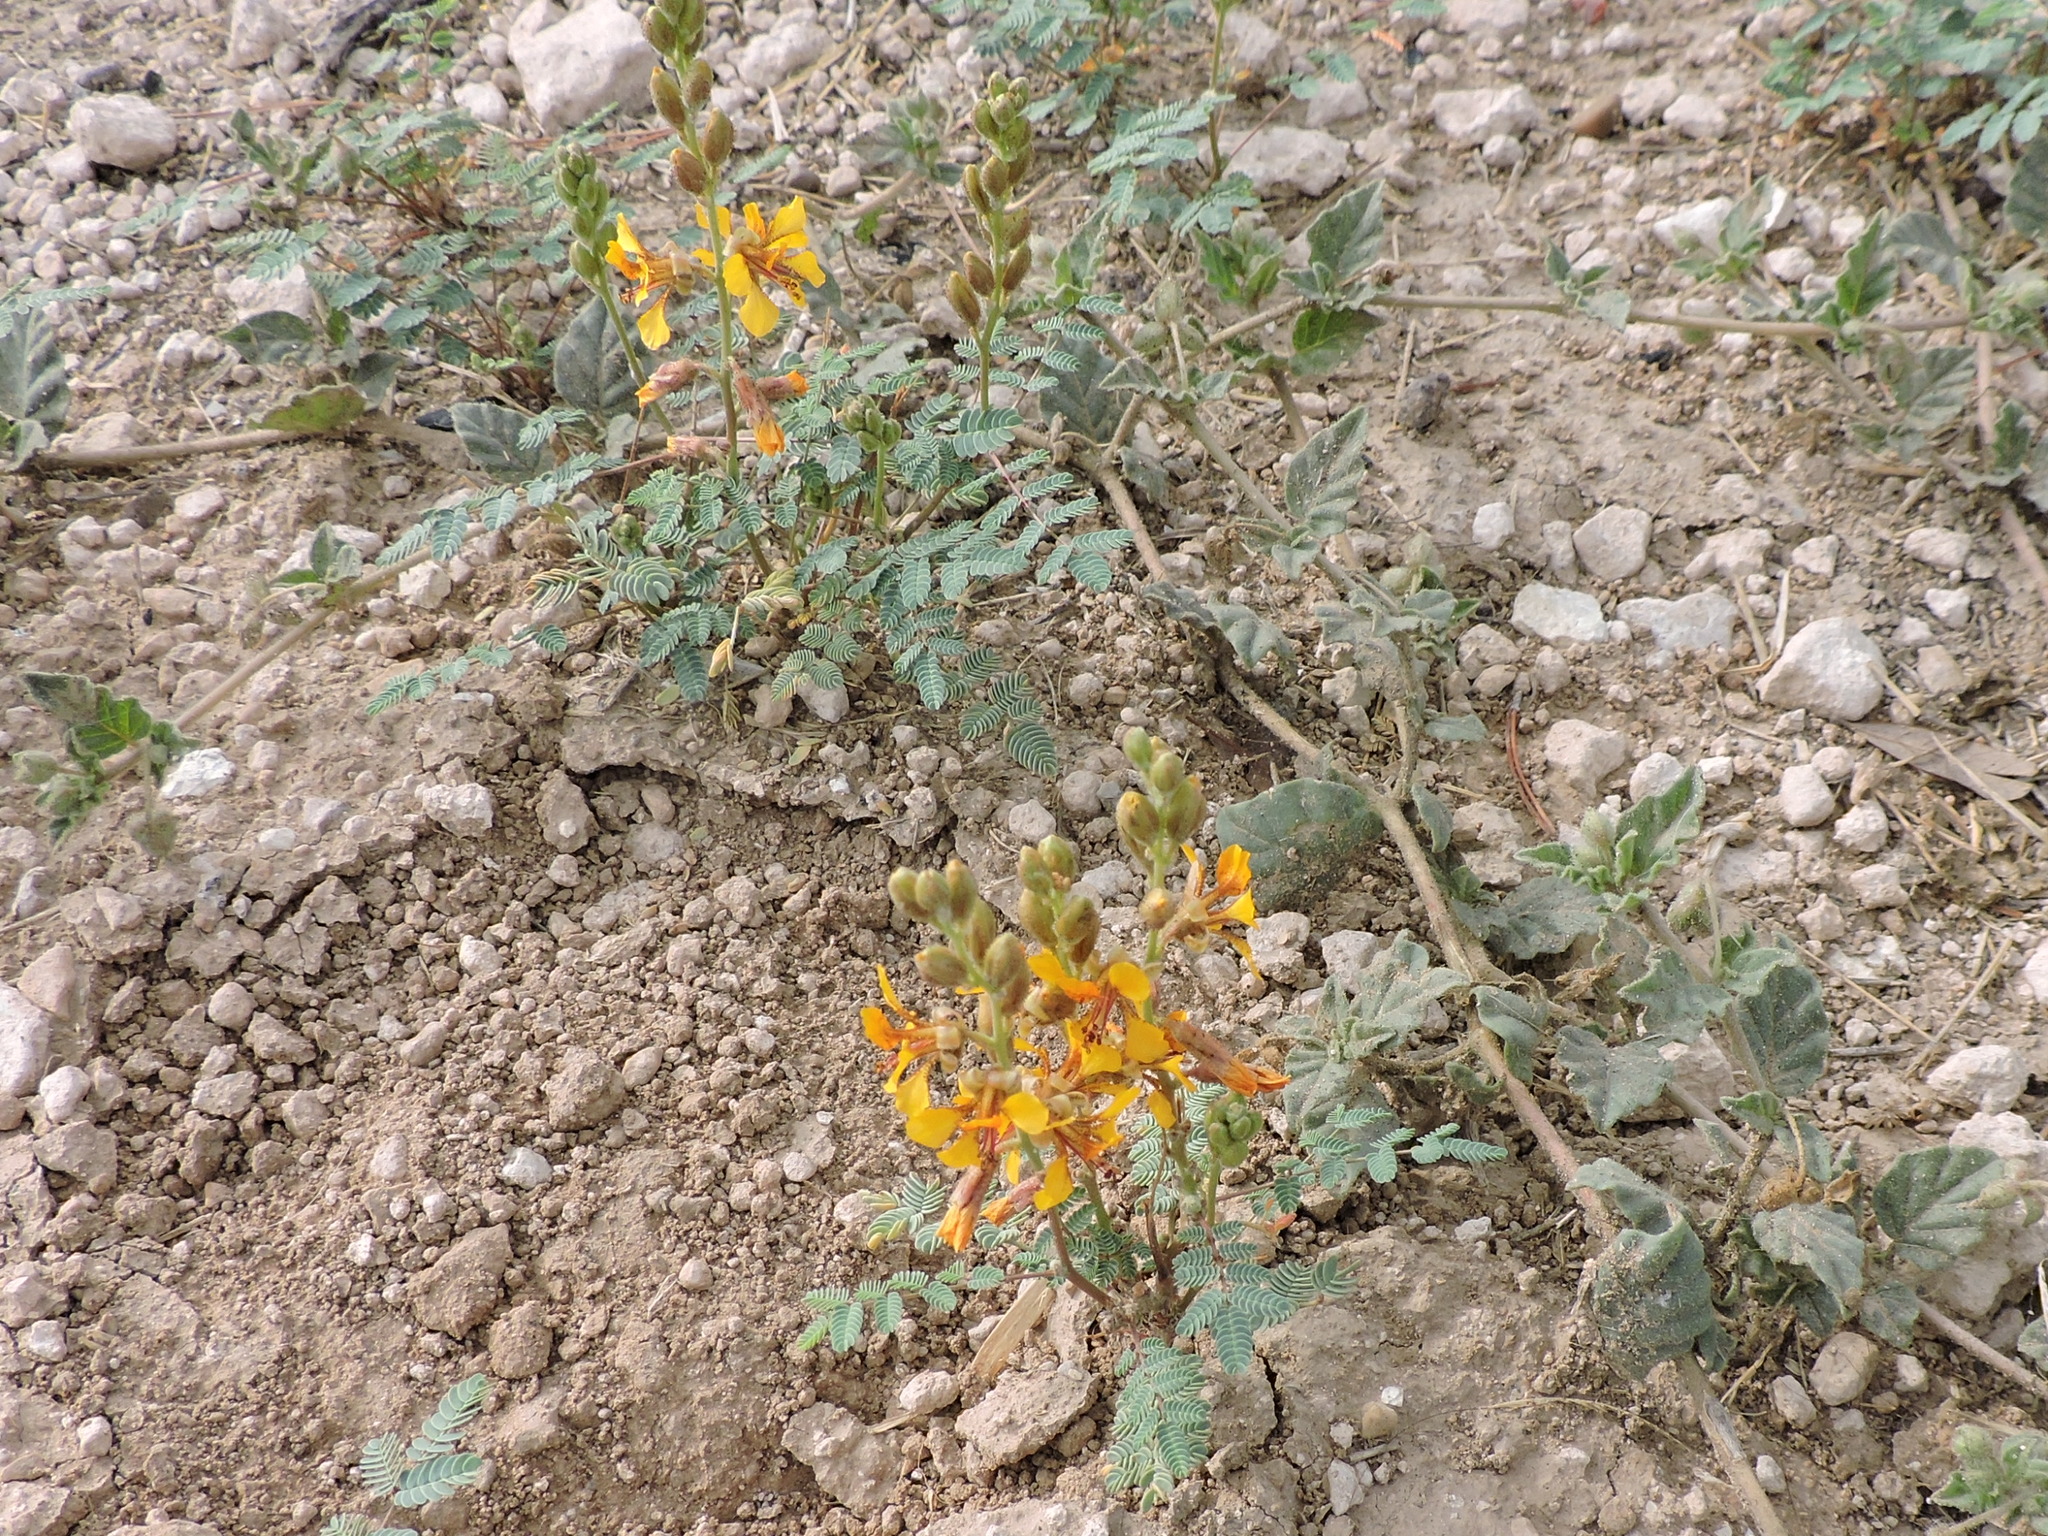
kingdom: Plantae
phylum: Tracheophyta
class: Magnoliopsida
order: Fabales
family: Fabaceae
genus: Hoffmannseggia
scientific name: Hoffmannseggia glauca
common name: Pignut
